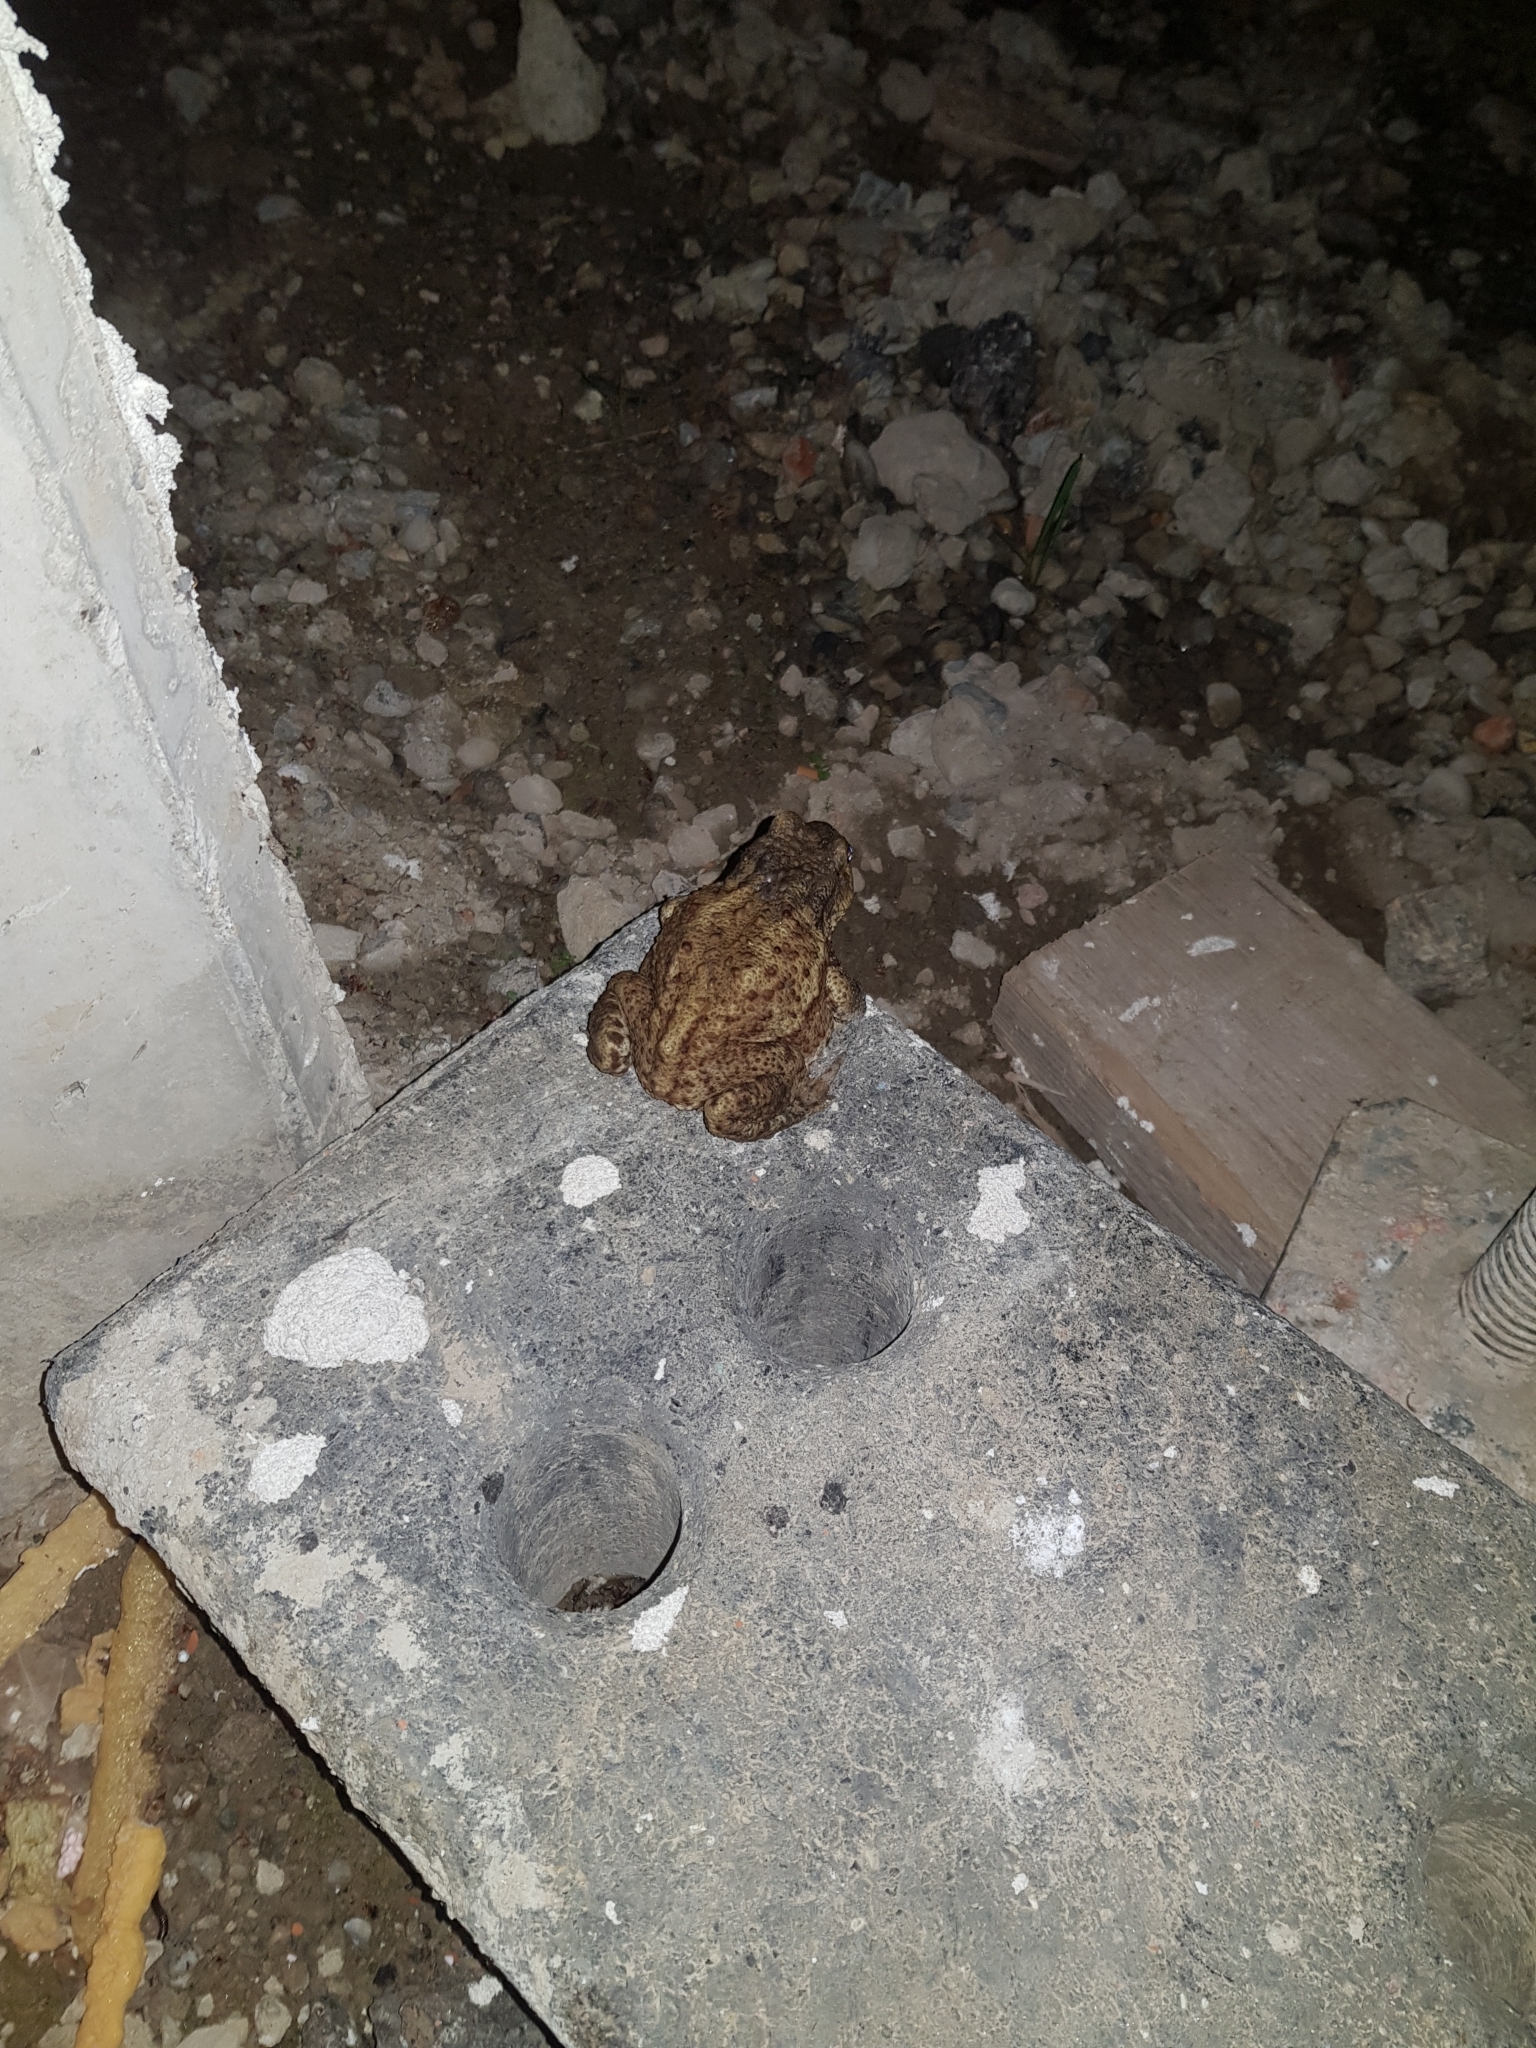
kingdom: Animalia
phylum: Chordata
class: Amphibia
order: Anura
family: Bufonidae
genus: Bufo
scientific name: Bufo bufo
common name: Common toad
